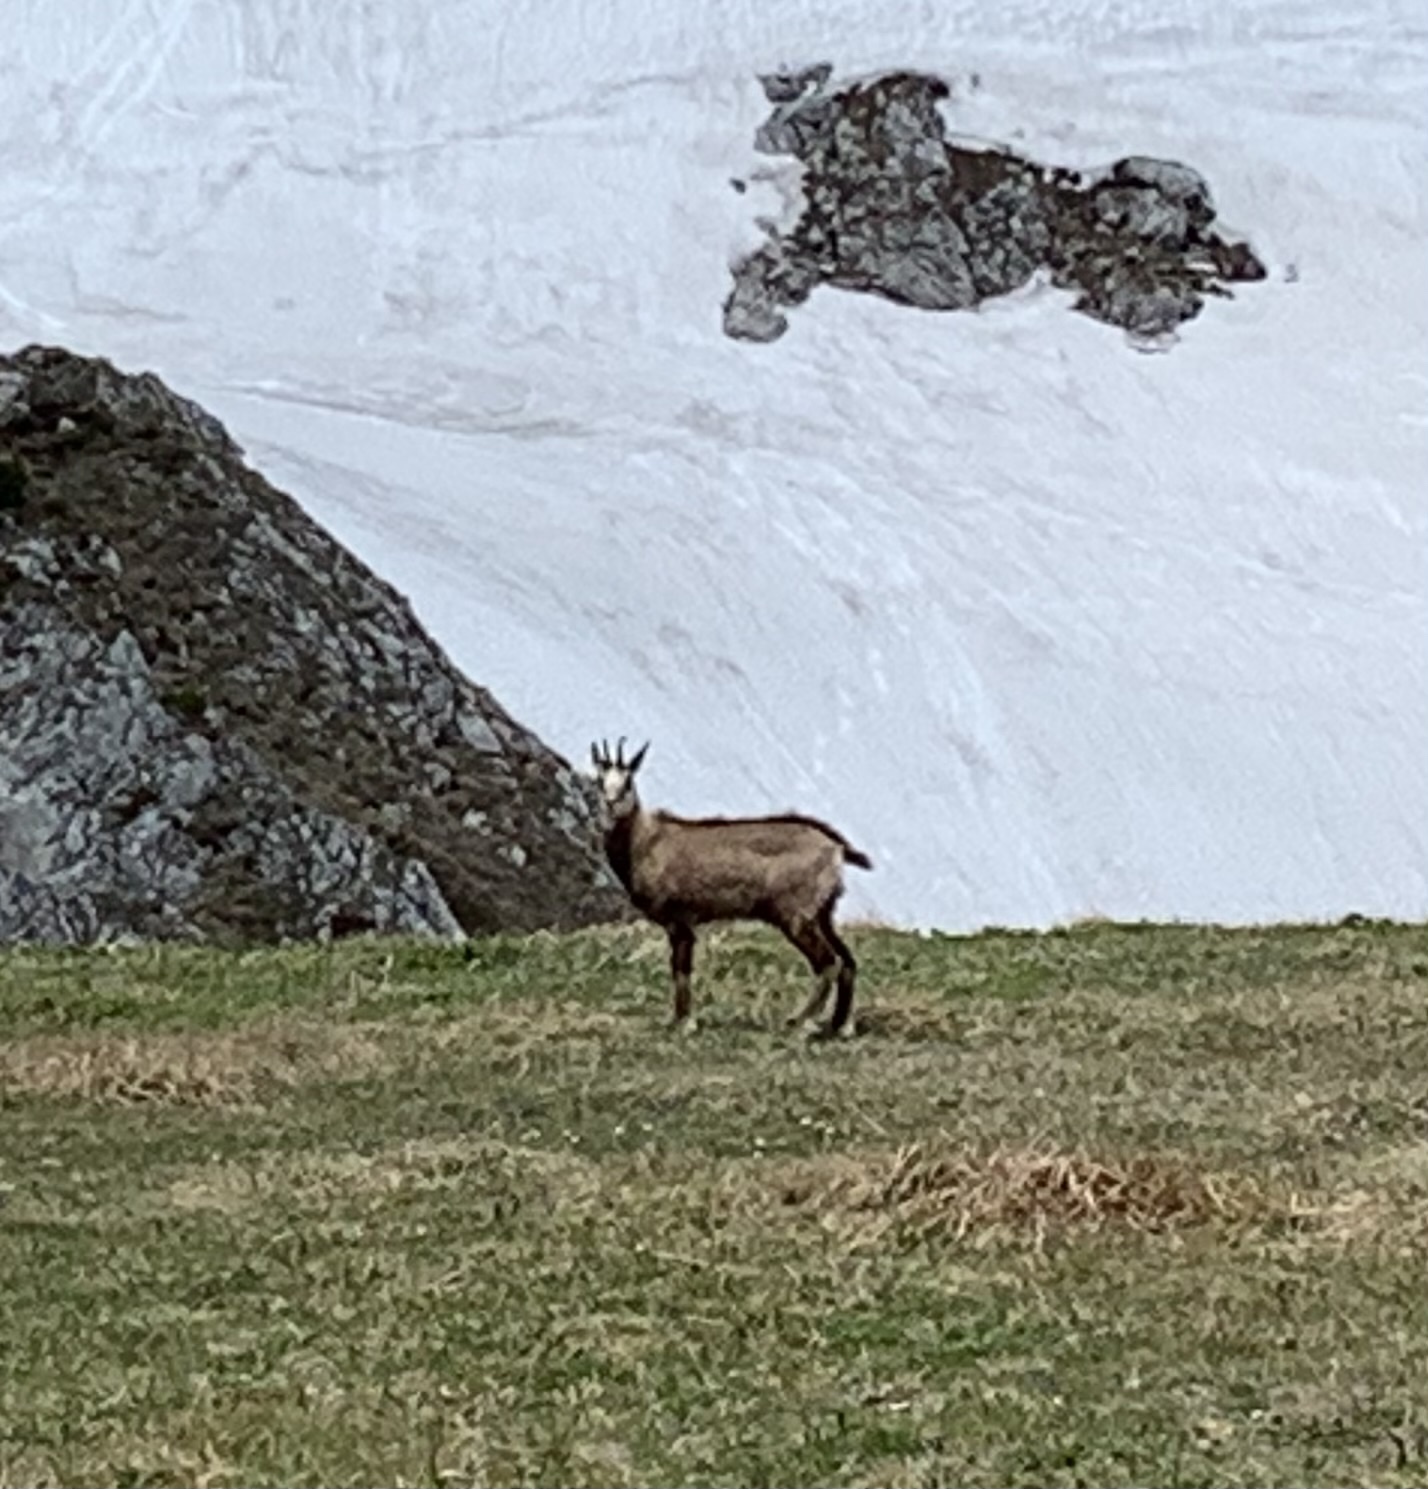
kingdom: Animalia
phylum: Chordata
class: Mammalia
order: Artiodactyla
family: Bovidae
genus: Rupicapra
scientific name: Rupicapra rupicapra
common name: Chamois
